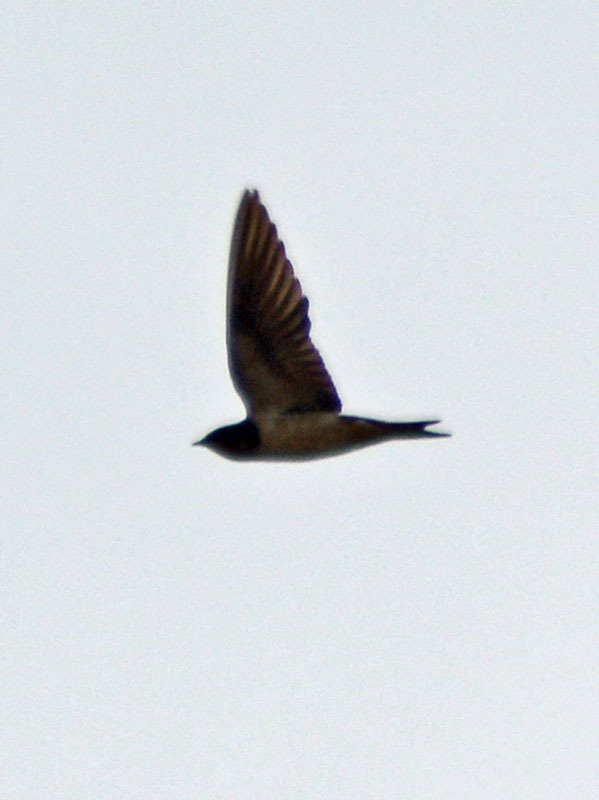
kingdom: Animalia
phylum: Chordata
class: Aves
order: Passeriformes
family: Hirundinidae
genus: Hirundo
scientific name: Hirundo rustica
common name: Barn swallow
